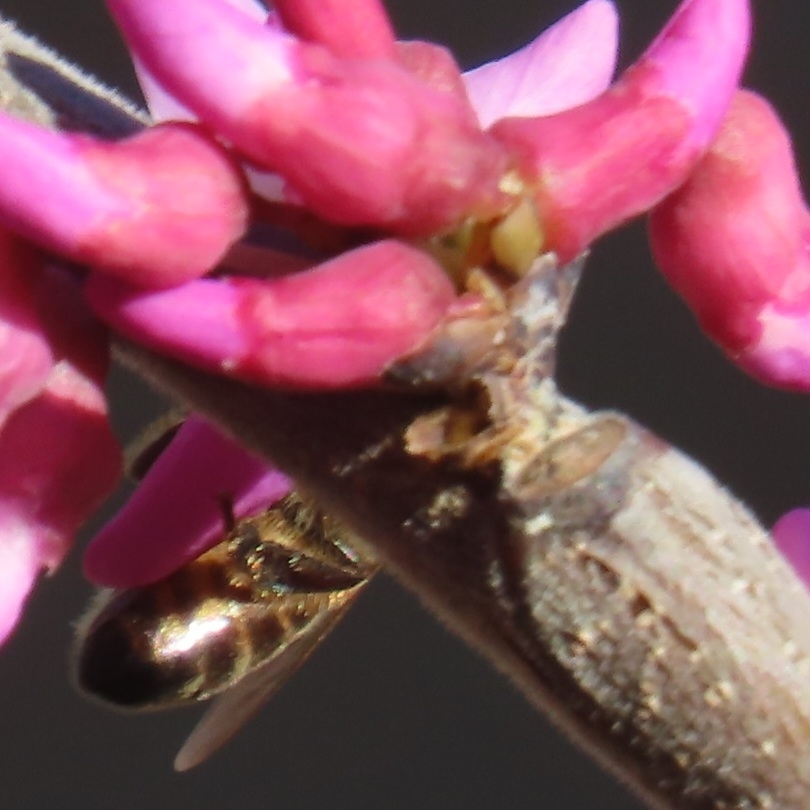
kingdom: Animalia
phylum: Arthropoda
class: Insecta
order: Hymenoptera
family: Apidae
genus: Apis
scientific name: Apis mellifera
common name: Honey bee
